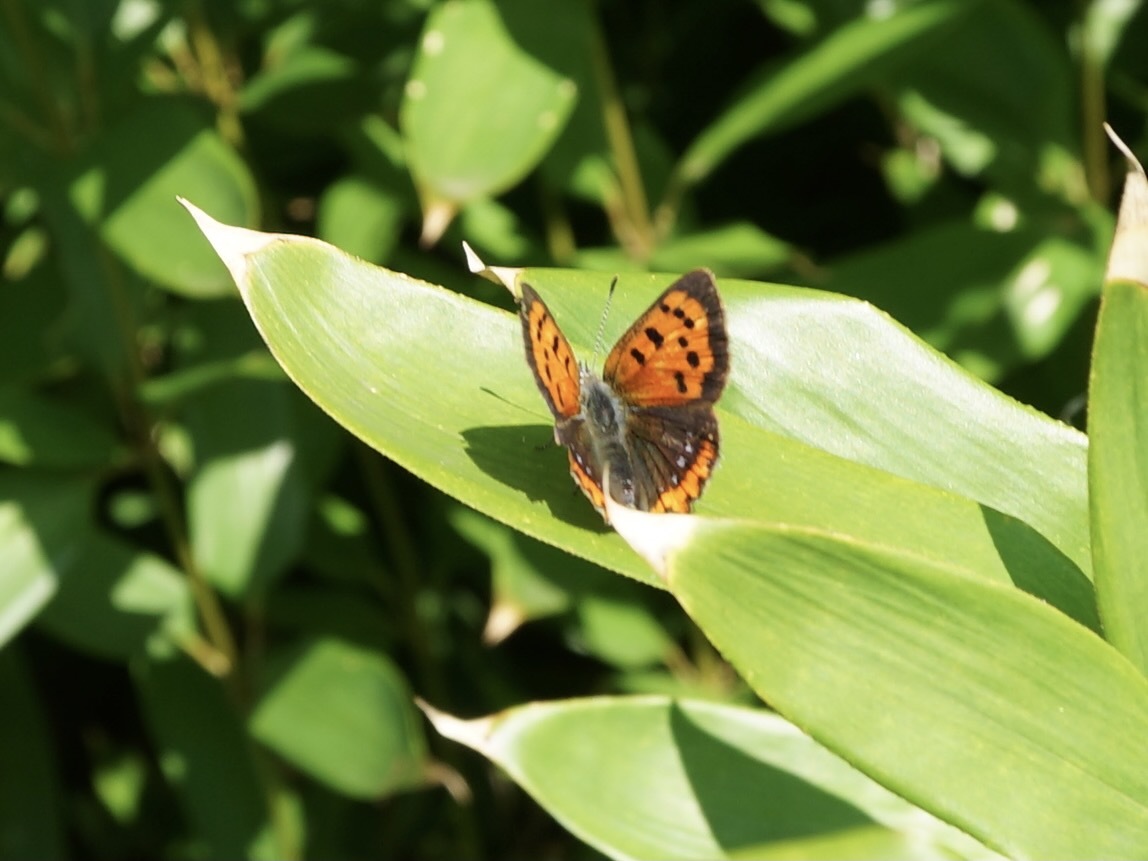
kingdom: Animalia
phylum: Arthropoda
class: Insecta
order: Lepidoptera
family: Lycaenidae
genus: Lycaena
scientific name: Lycaena phlaeas
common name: Small copper
